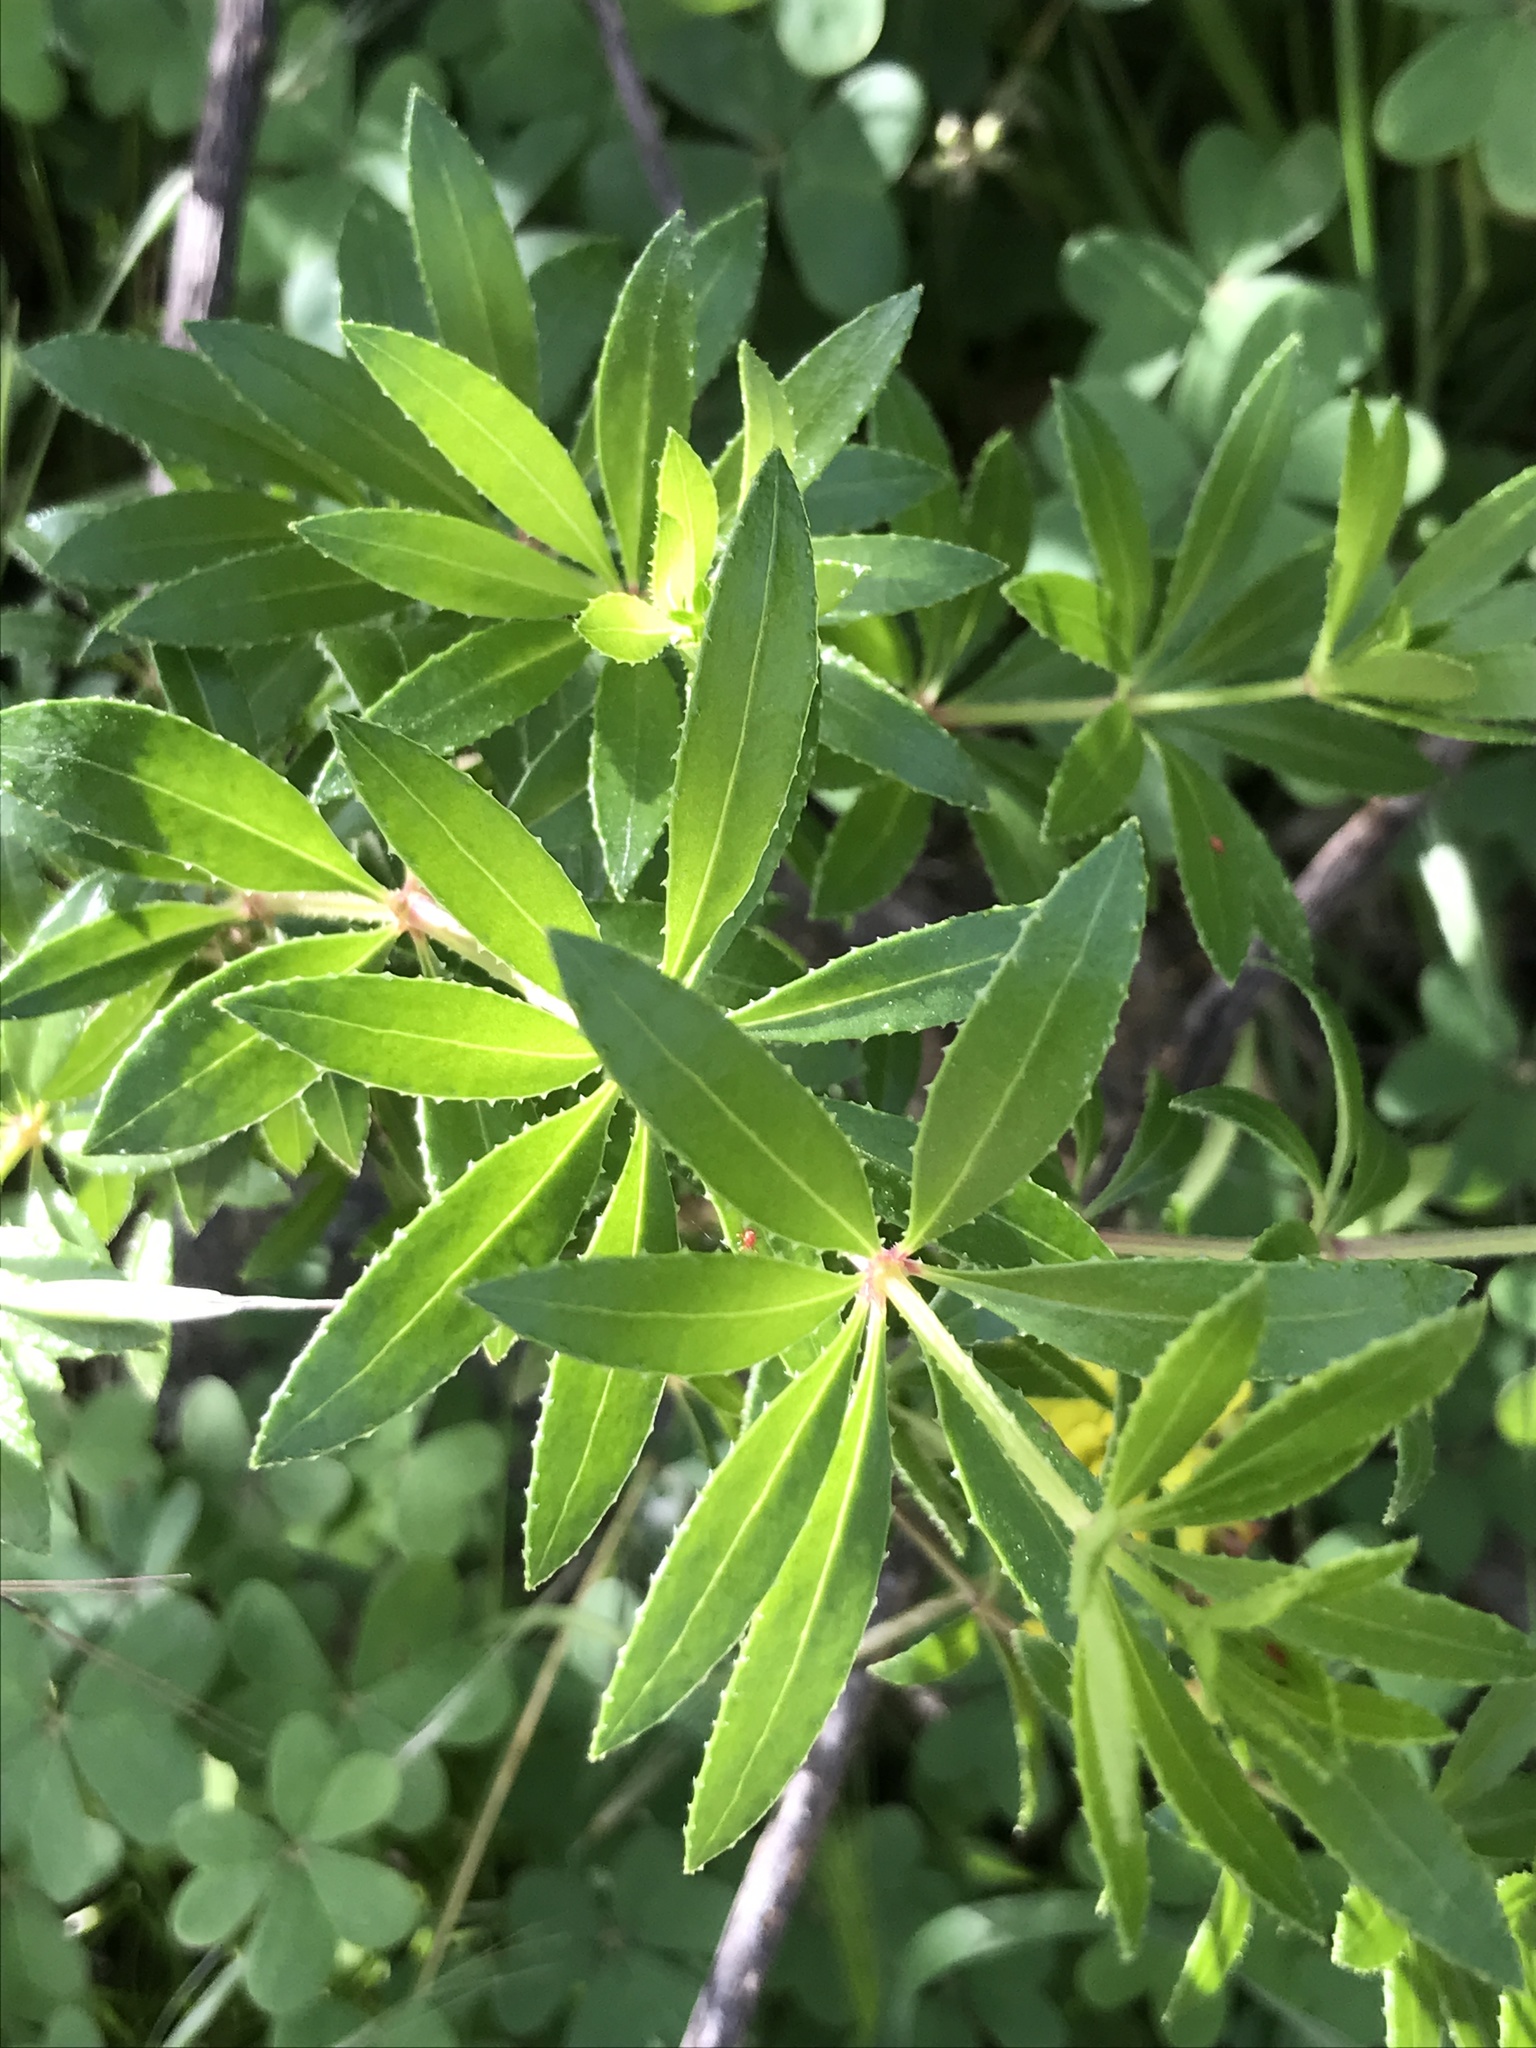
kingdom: Plantae
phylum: Tracheophyta
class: Magnoliopsida
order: Gentianales
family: Rubiaceae
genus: Rubia
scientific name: Rubia fruticosa
